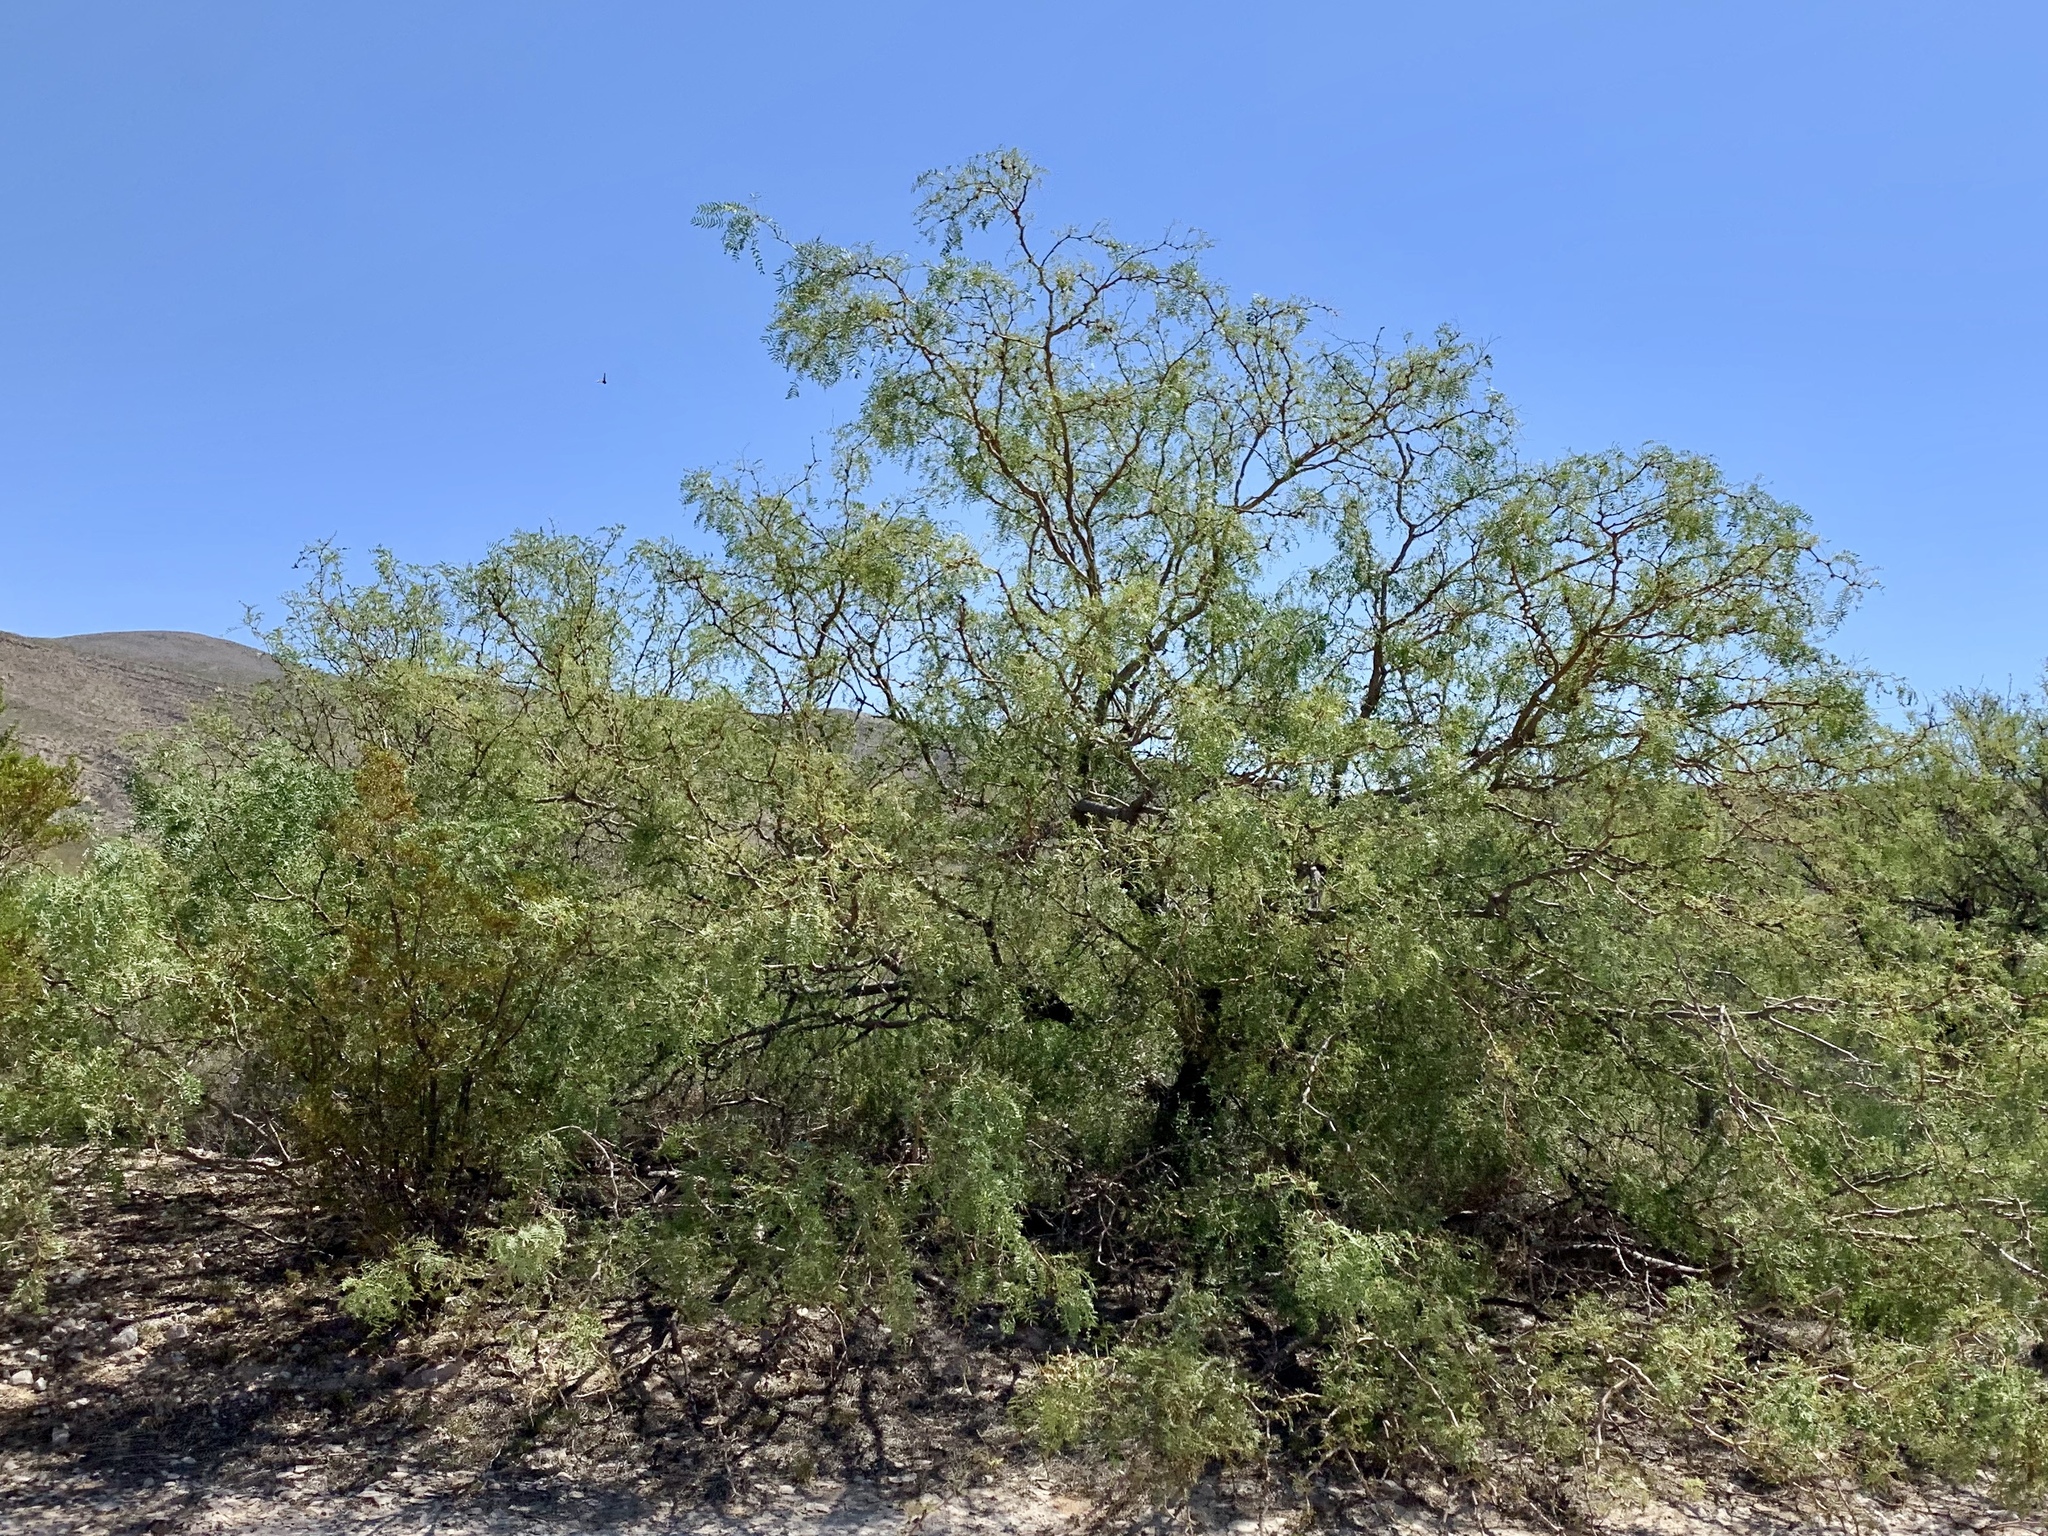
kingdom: Plantae
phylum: Tracheophyta
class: Magnoliopsida
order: Fabales
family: Fabaceae
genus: Prosopis
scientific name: Prosopis glandulosa
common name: Honey mesquite
